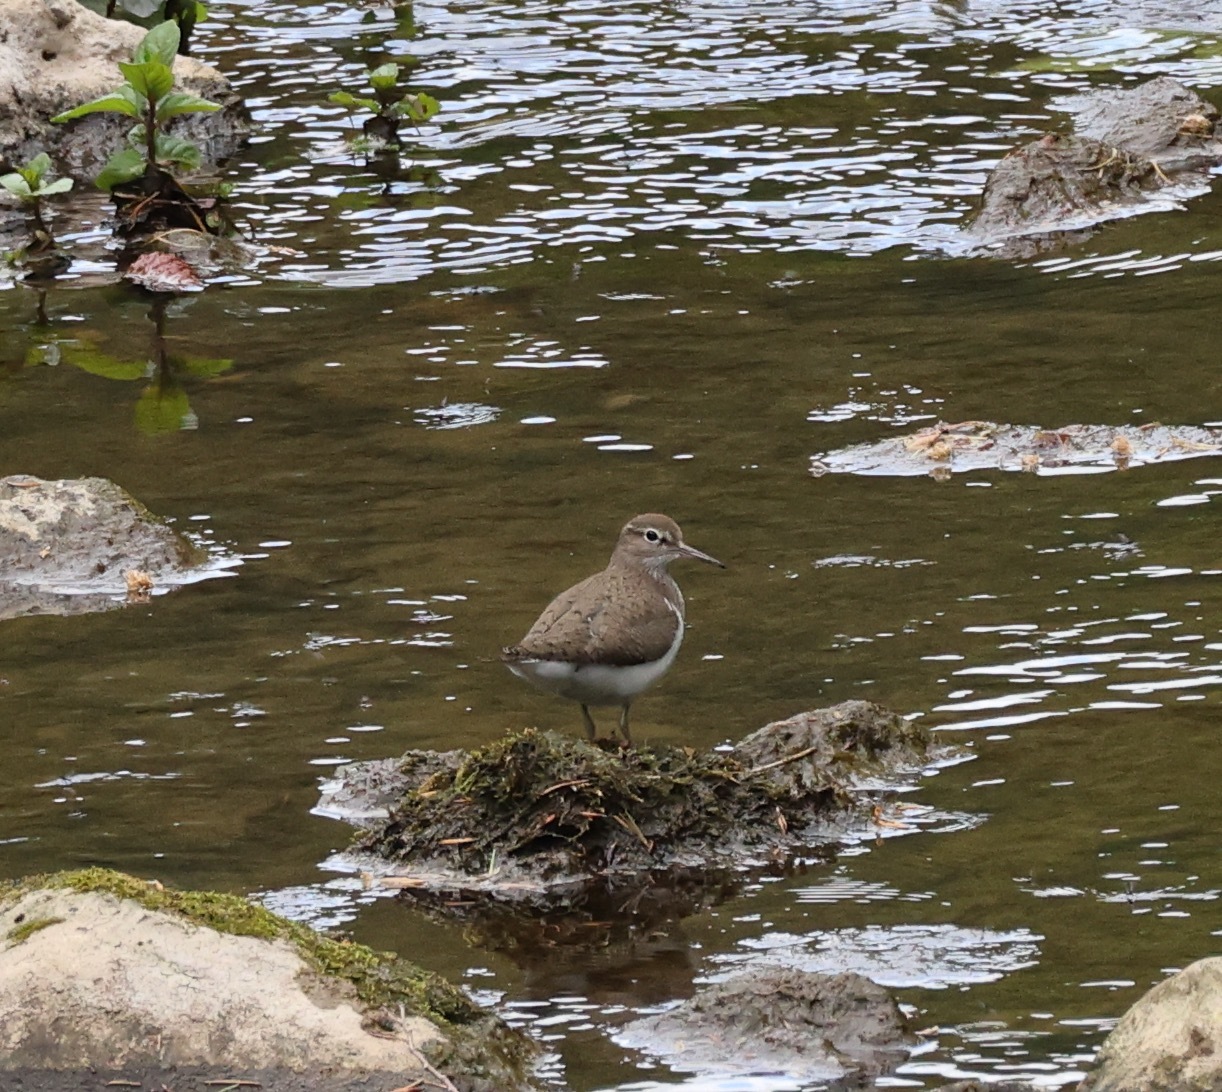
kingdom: Animalia
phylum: Chordata
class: Aves
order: Charadriiformes
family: Scolopacidae
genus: Actitis
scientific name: Actitis hypoleucos
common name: Common sandpiper
